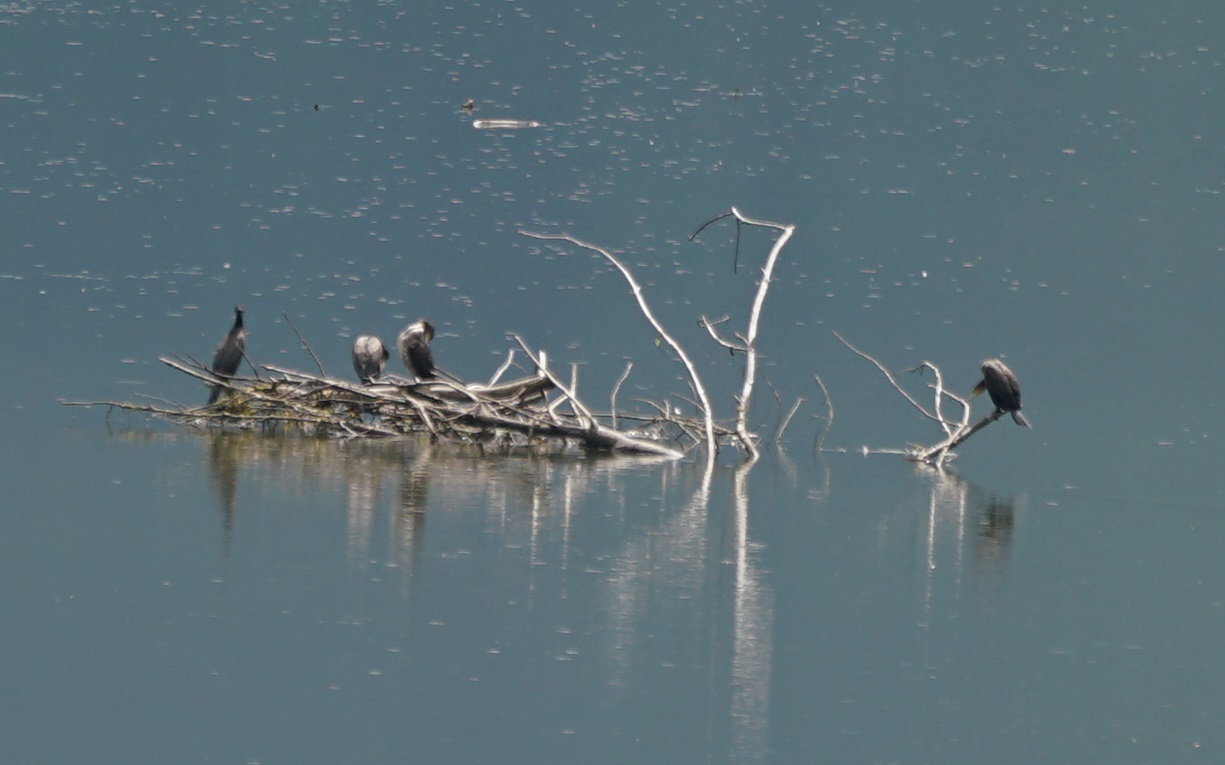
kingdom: Animalia
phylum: Chordata
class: Aves
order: Suliformes
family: Phalacrocoracidae
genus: Phalacrocorax
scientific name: Phalacrocorax carbo
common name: Great cormorant
